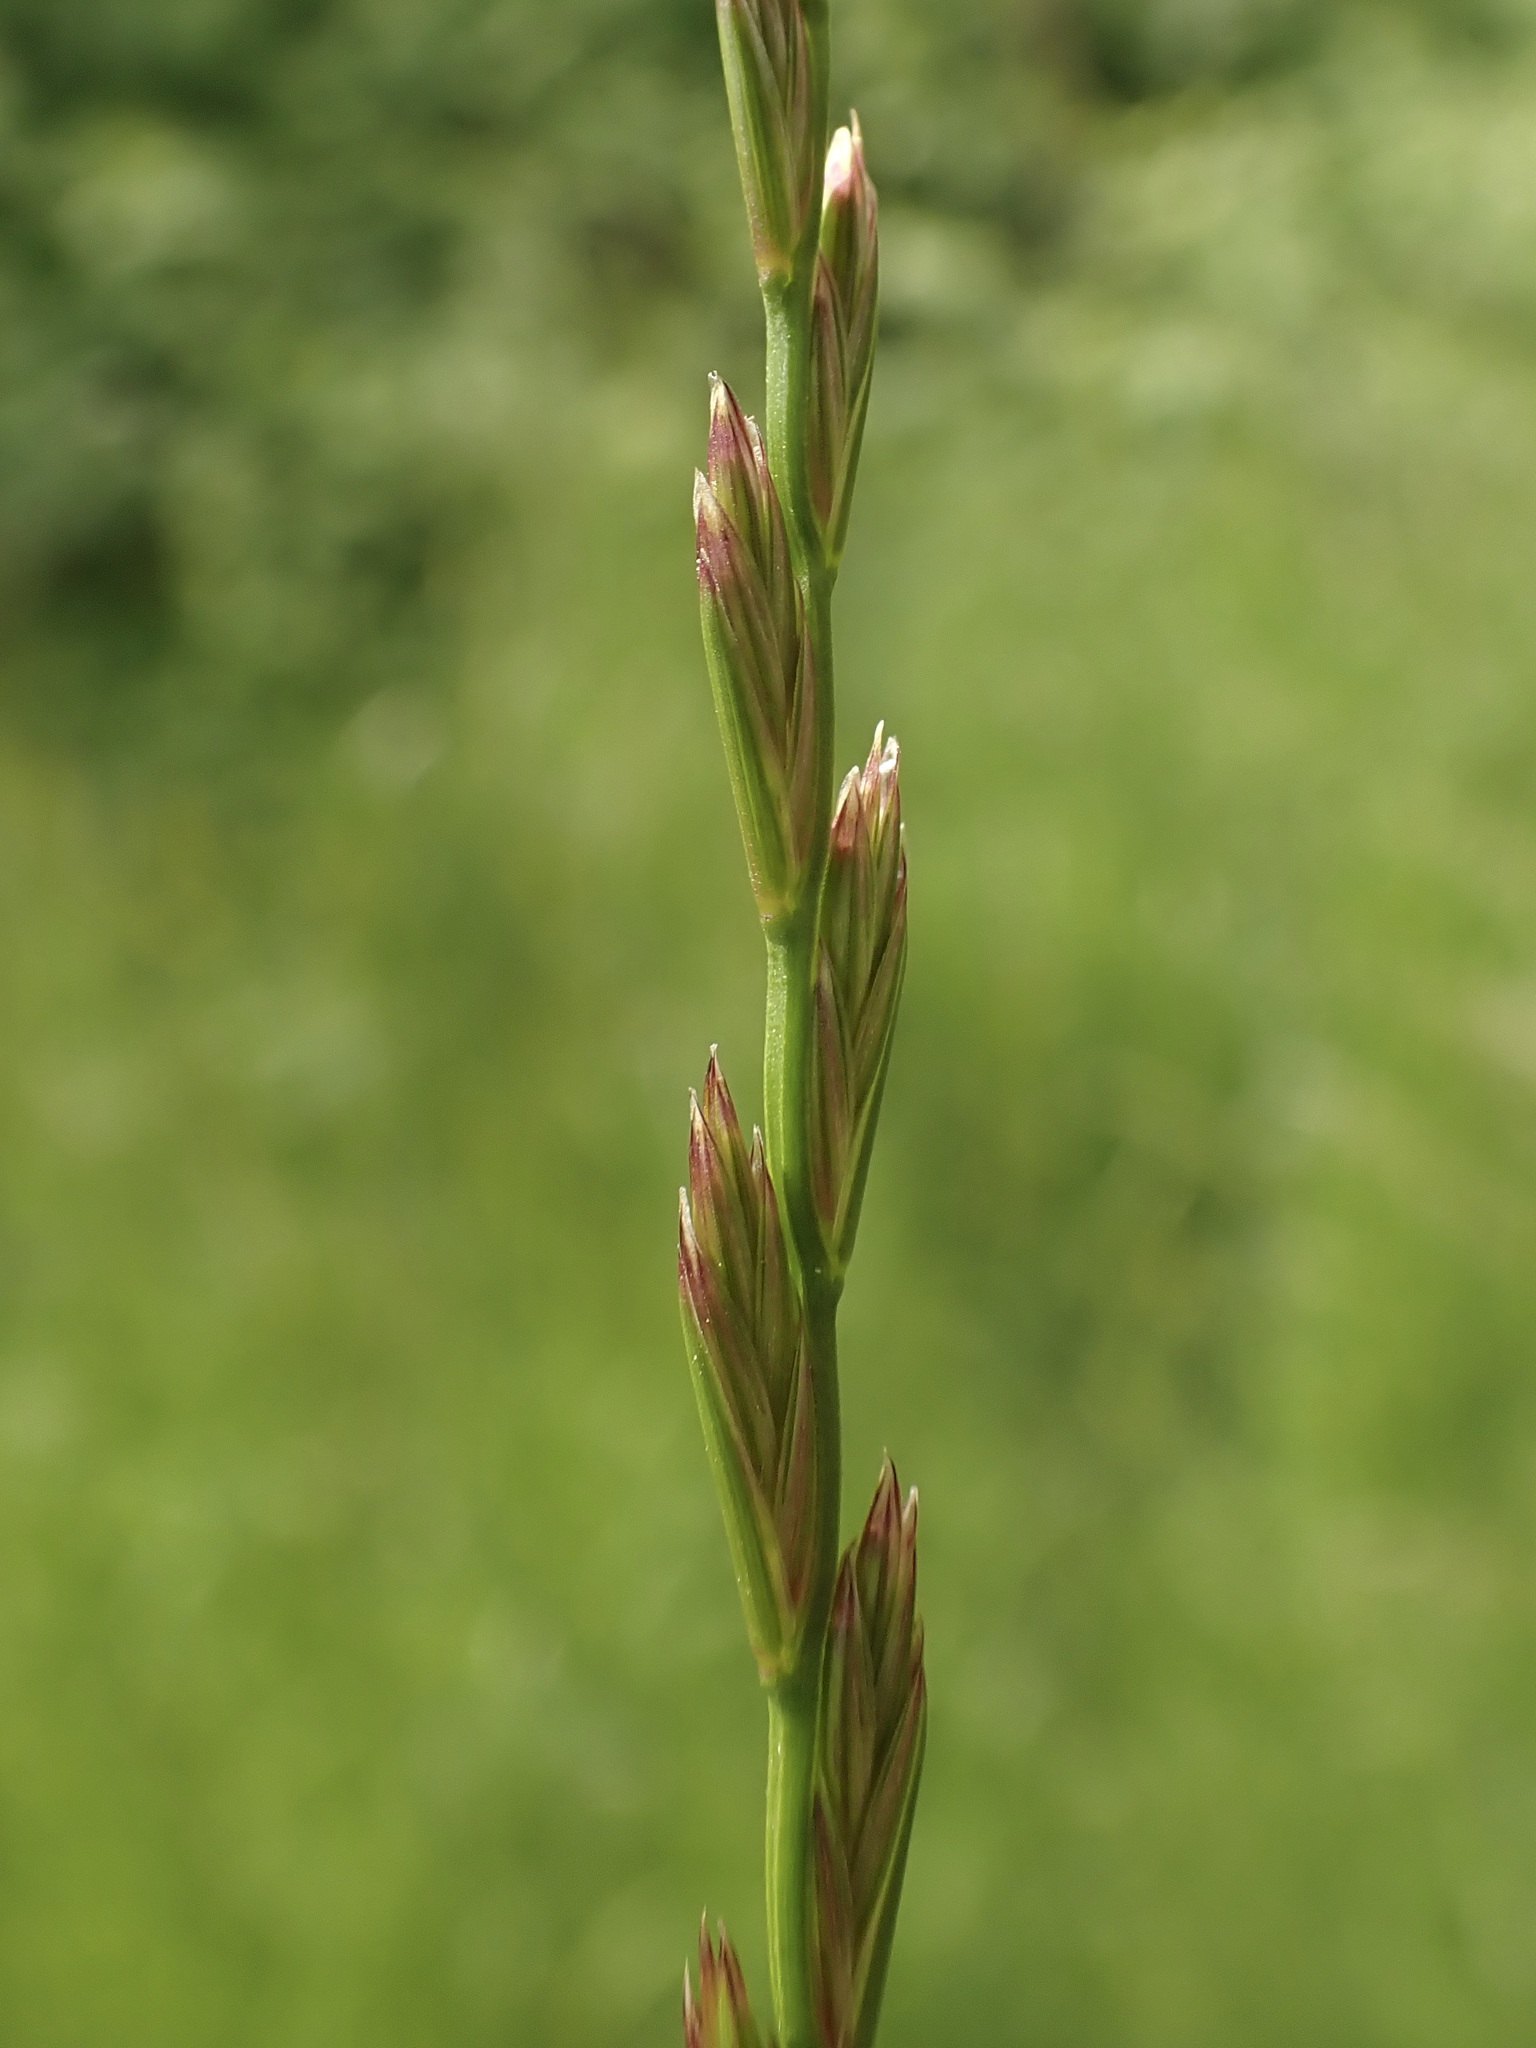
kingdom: Plantae
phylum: Tracheophyta
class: Liliopsida
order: Poales
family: Poaceae
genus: Lolium
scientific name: Lolium perenne
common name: Perennial ryegrass
